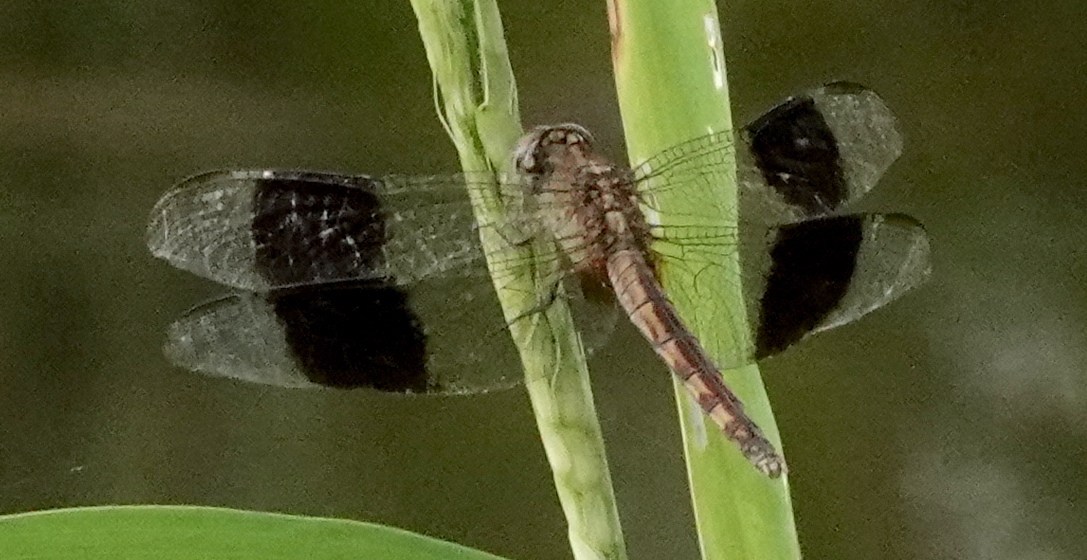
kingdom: Animalia
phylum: Arthropoda
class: Insecta
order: Odonata
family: Libellulidae
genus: Erythrodiplax
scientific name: Erythrodiplax umbrata
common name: Band-winged dragonlet
